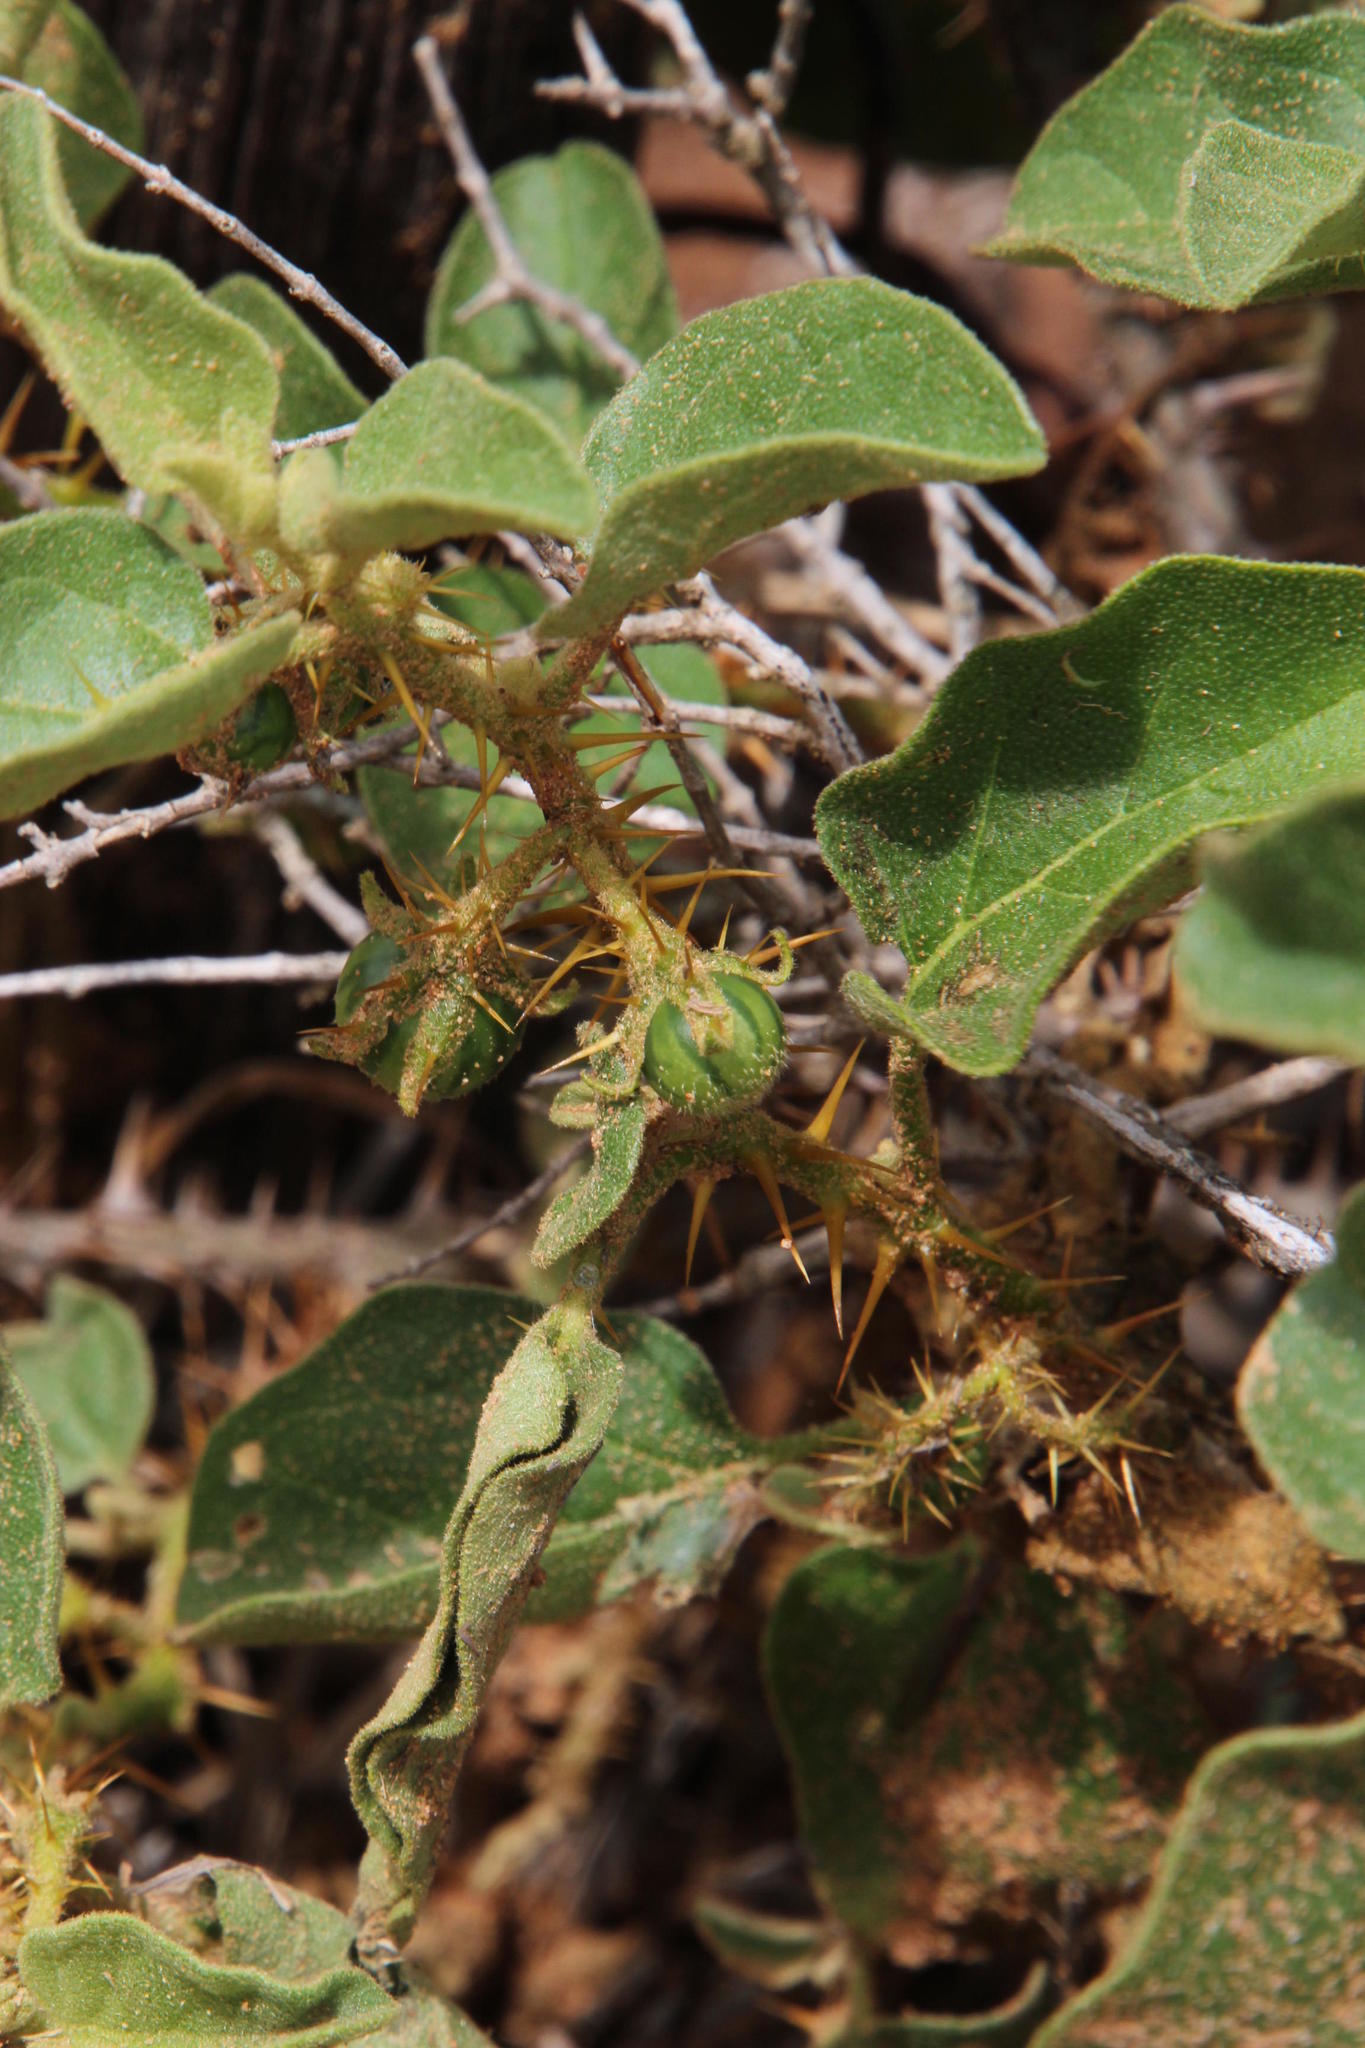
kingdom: Plantae
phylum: Tracheophyta
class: Magnoliopsida
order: Solanales
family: Solanaceae
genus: Solanum
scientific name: Solanum tomentosum
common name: Wild aubergine
